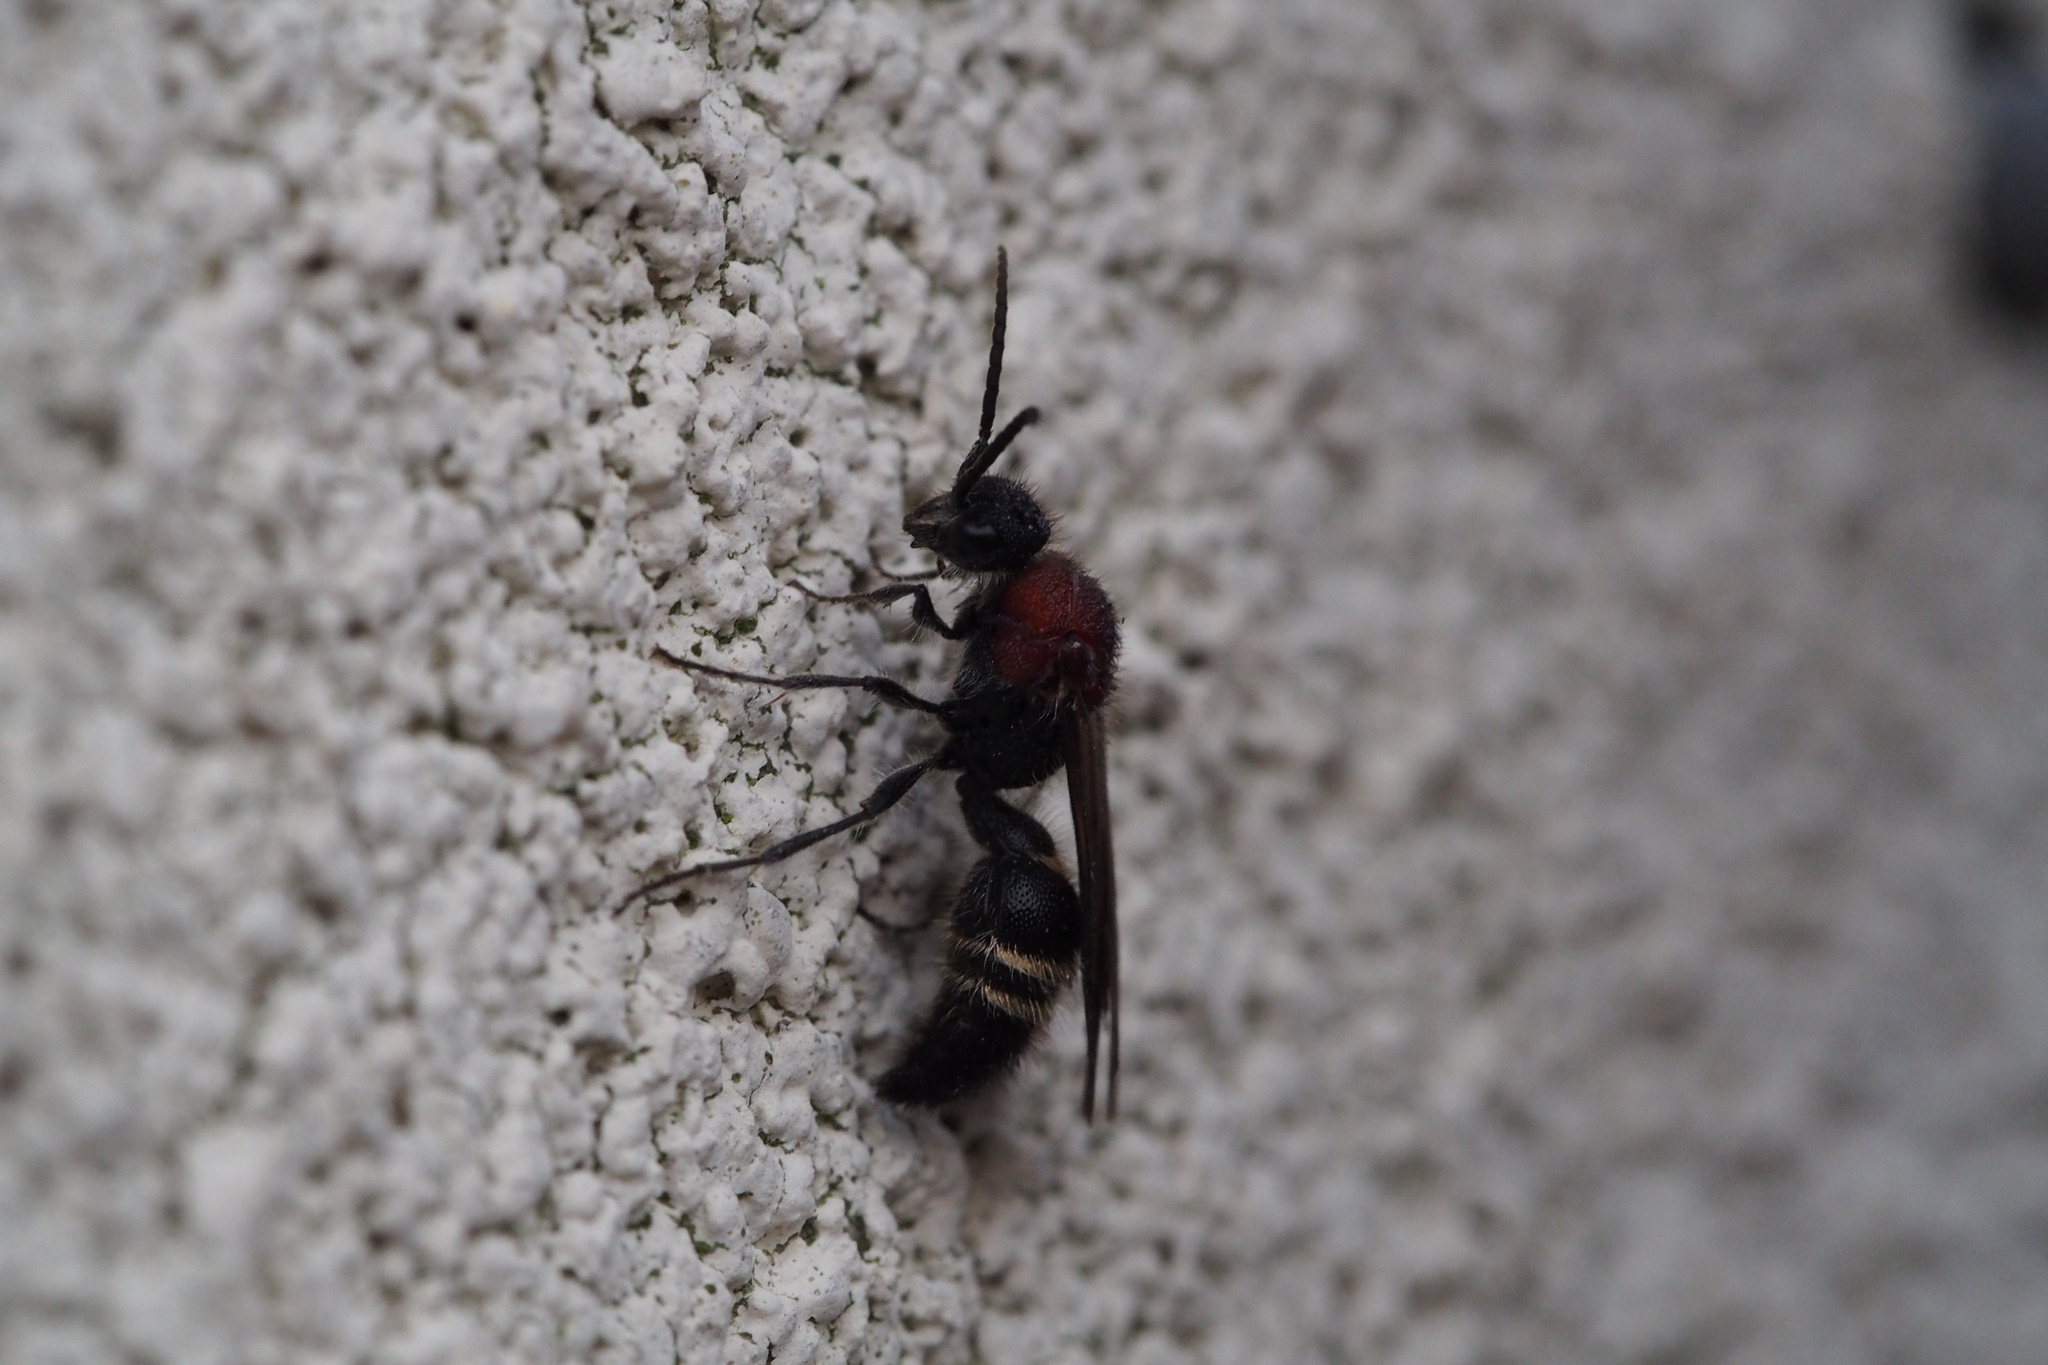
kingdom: Animalia
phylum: Arthropoda
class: Insecta
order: Hymenoptera
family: Mutillidae
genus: Smicromyrme
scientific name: Smicromyrme lewisi
